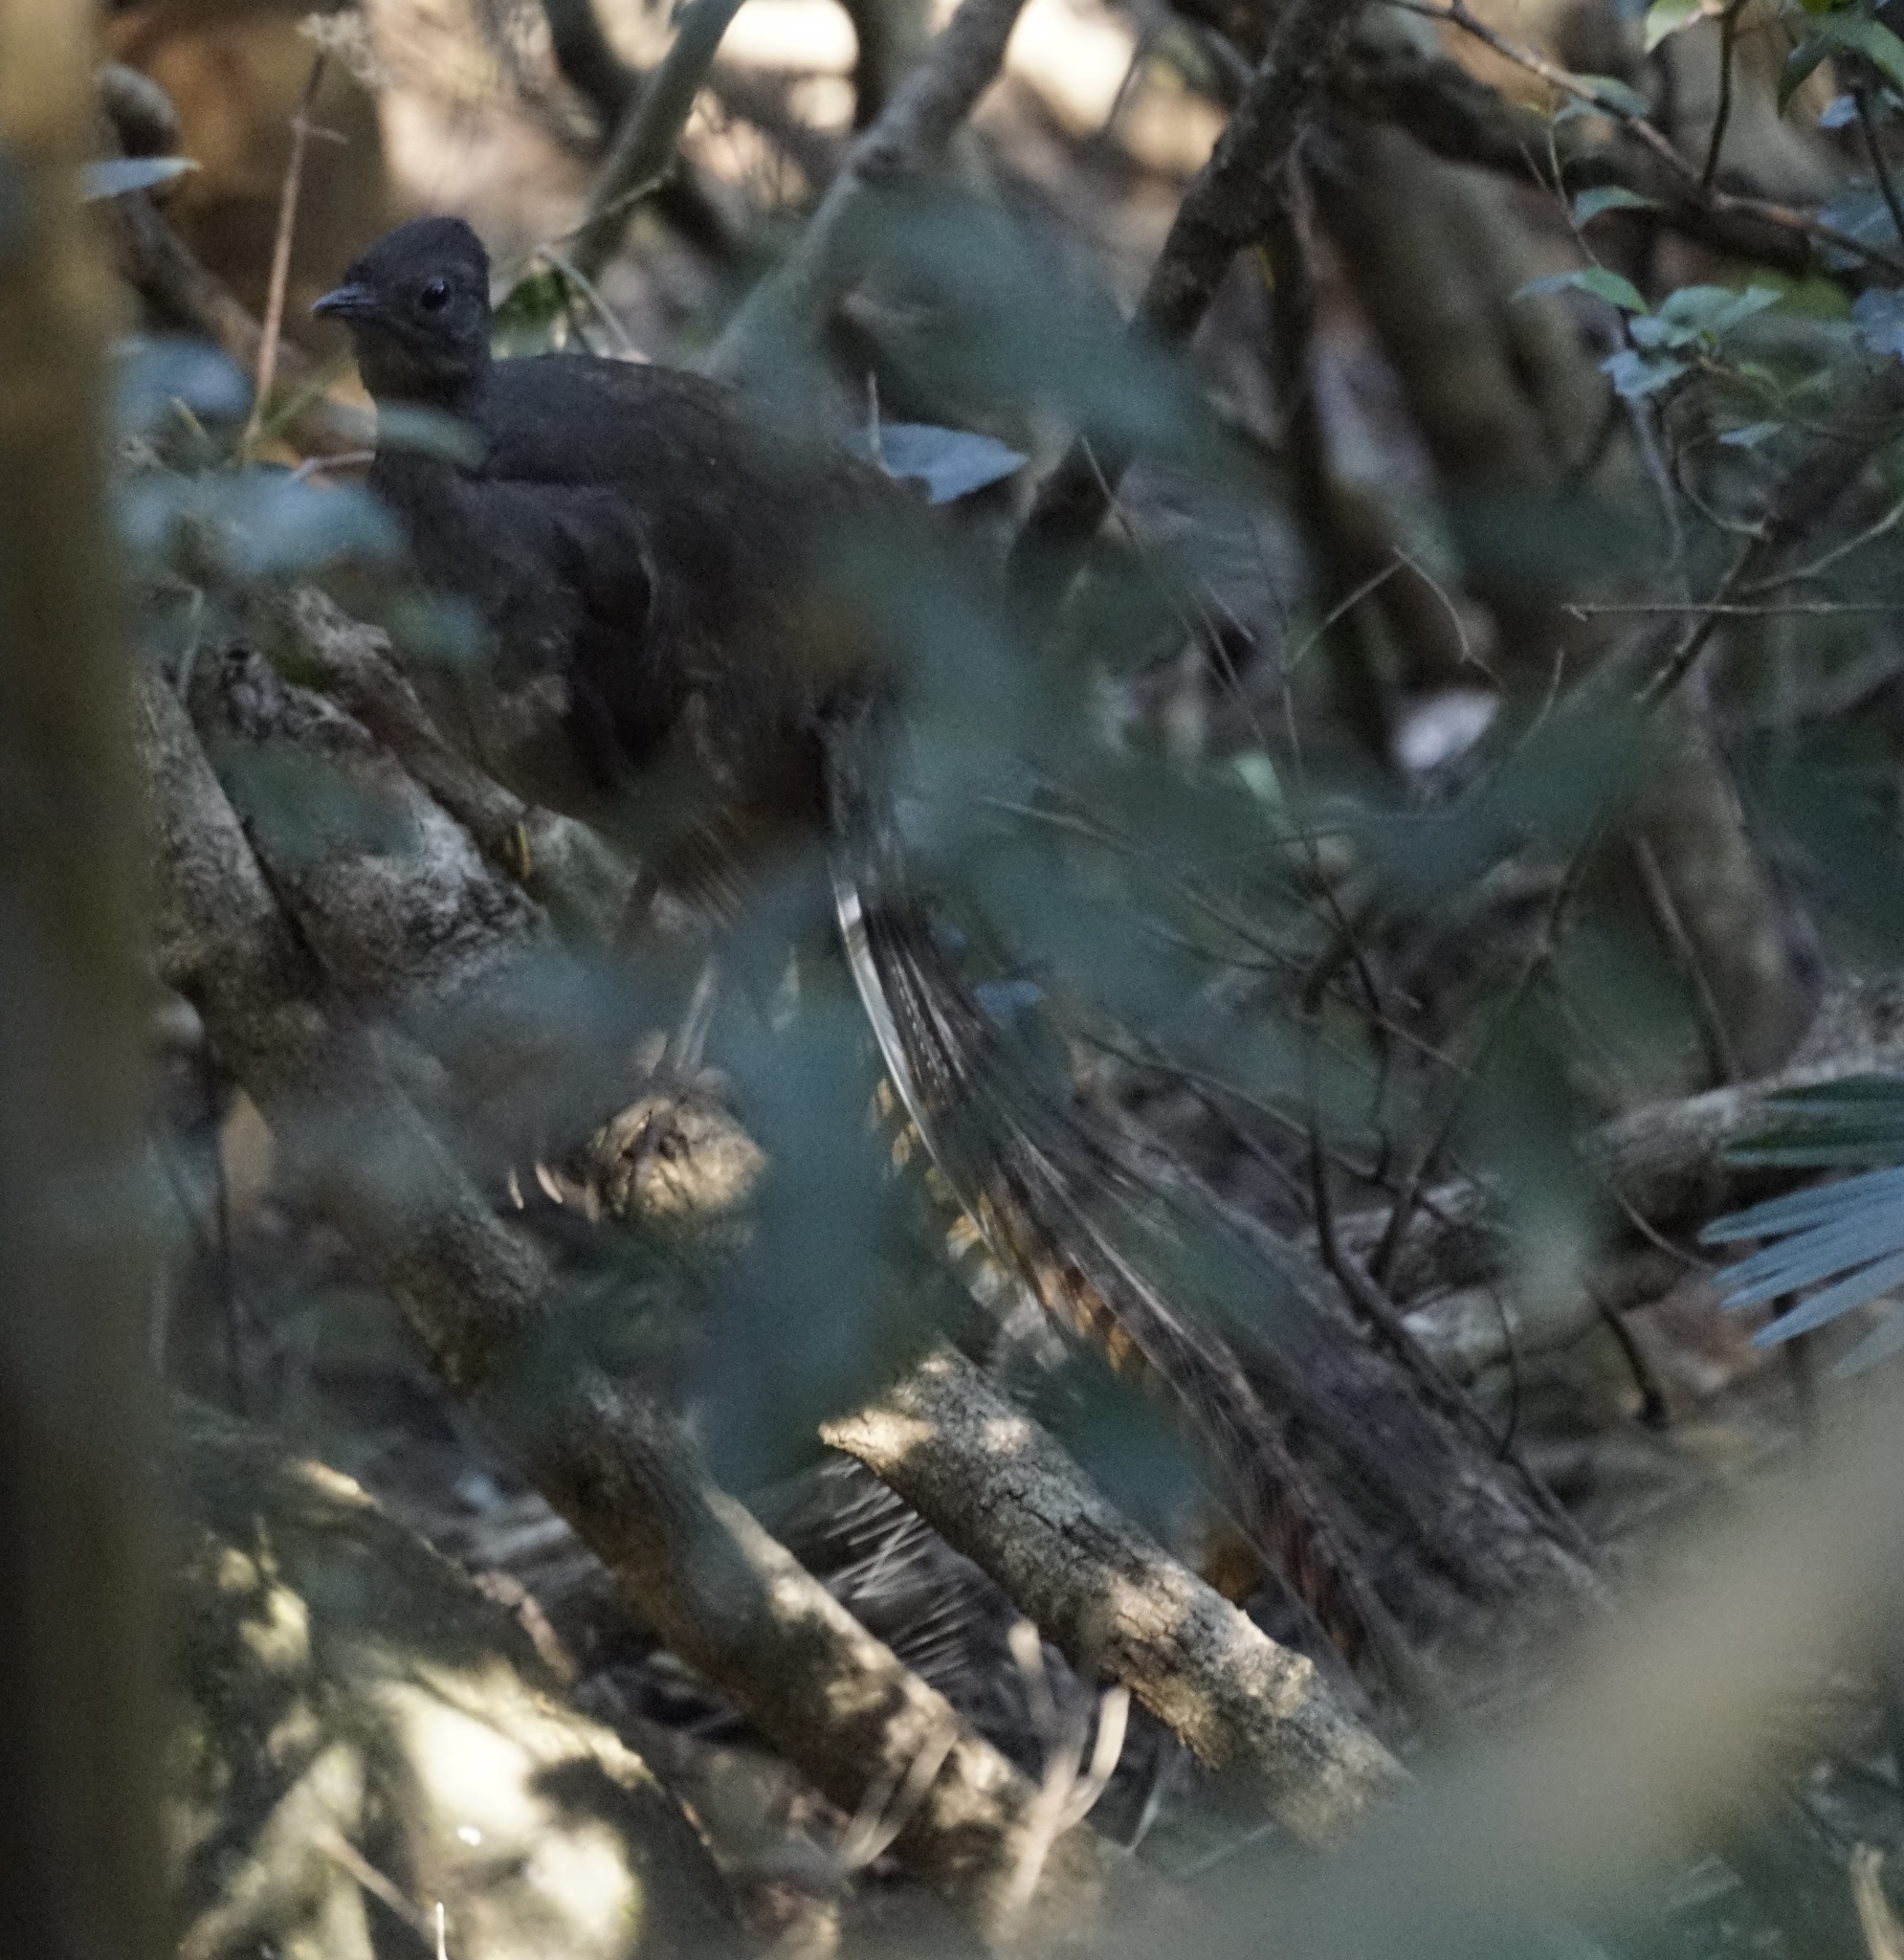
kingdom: Animalia
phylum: Chordata
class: Aves
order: Passeriformes
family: Menuridae
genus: Menura
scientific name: Menura novaehollandiae
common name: Superb lyrebird
